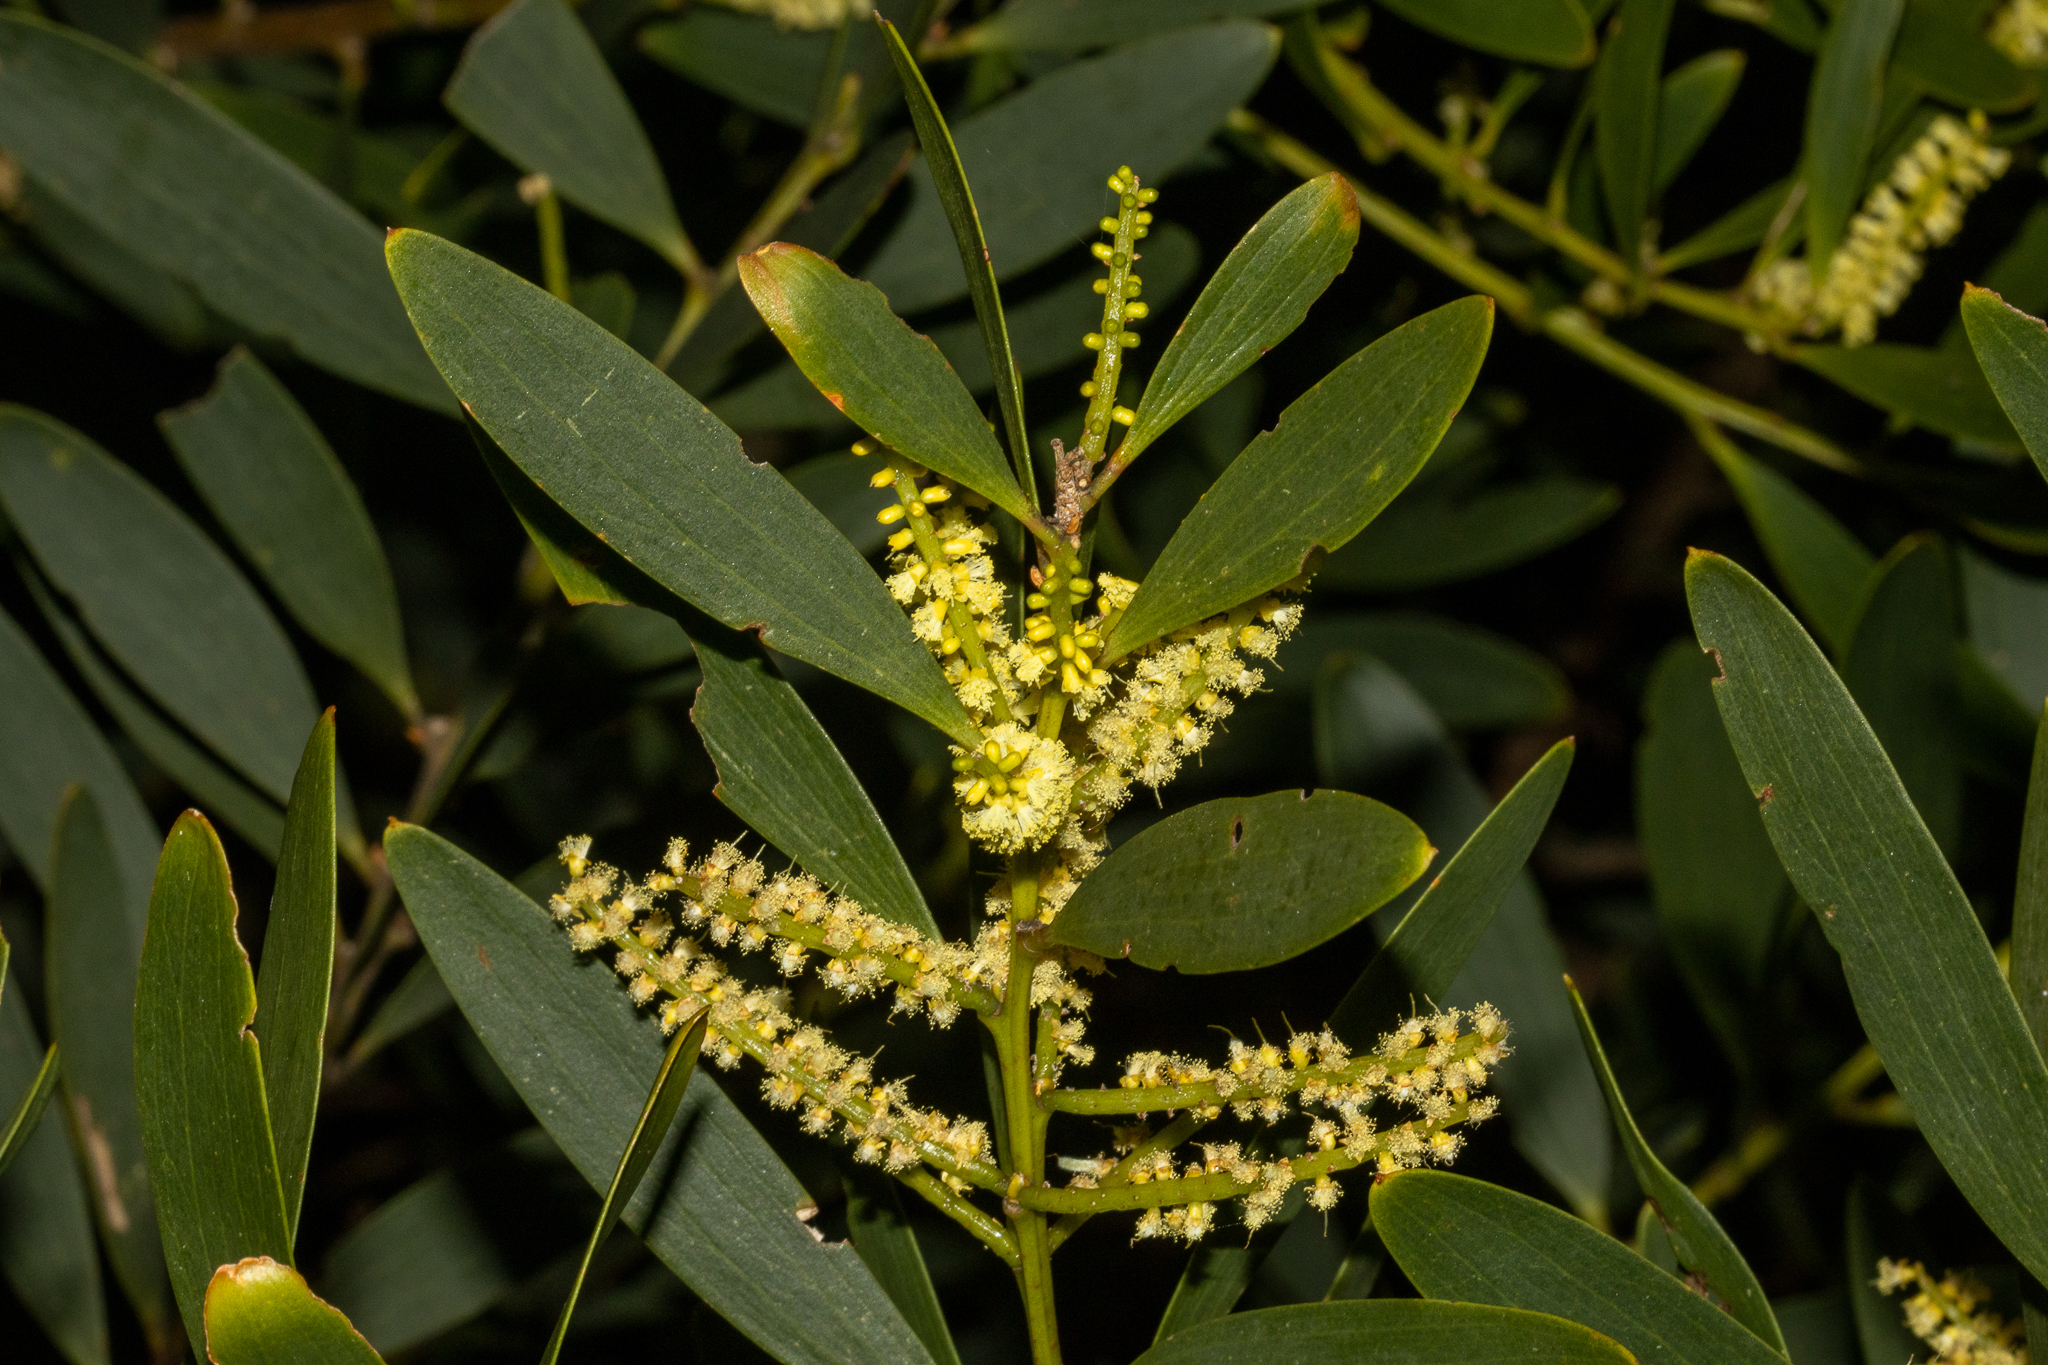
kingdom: Plantae
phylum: Tracheophyta
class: Magnoliopsida
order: Fabales
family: Fabaceae
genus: Acacia
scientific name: Acacia longifolia
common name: Sydney golden wattle
